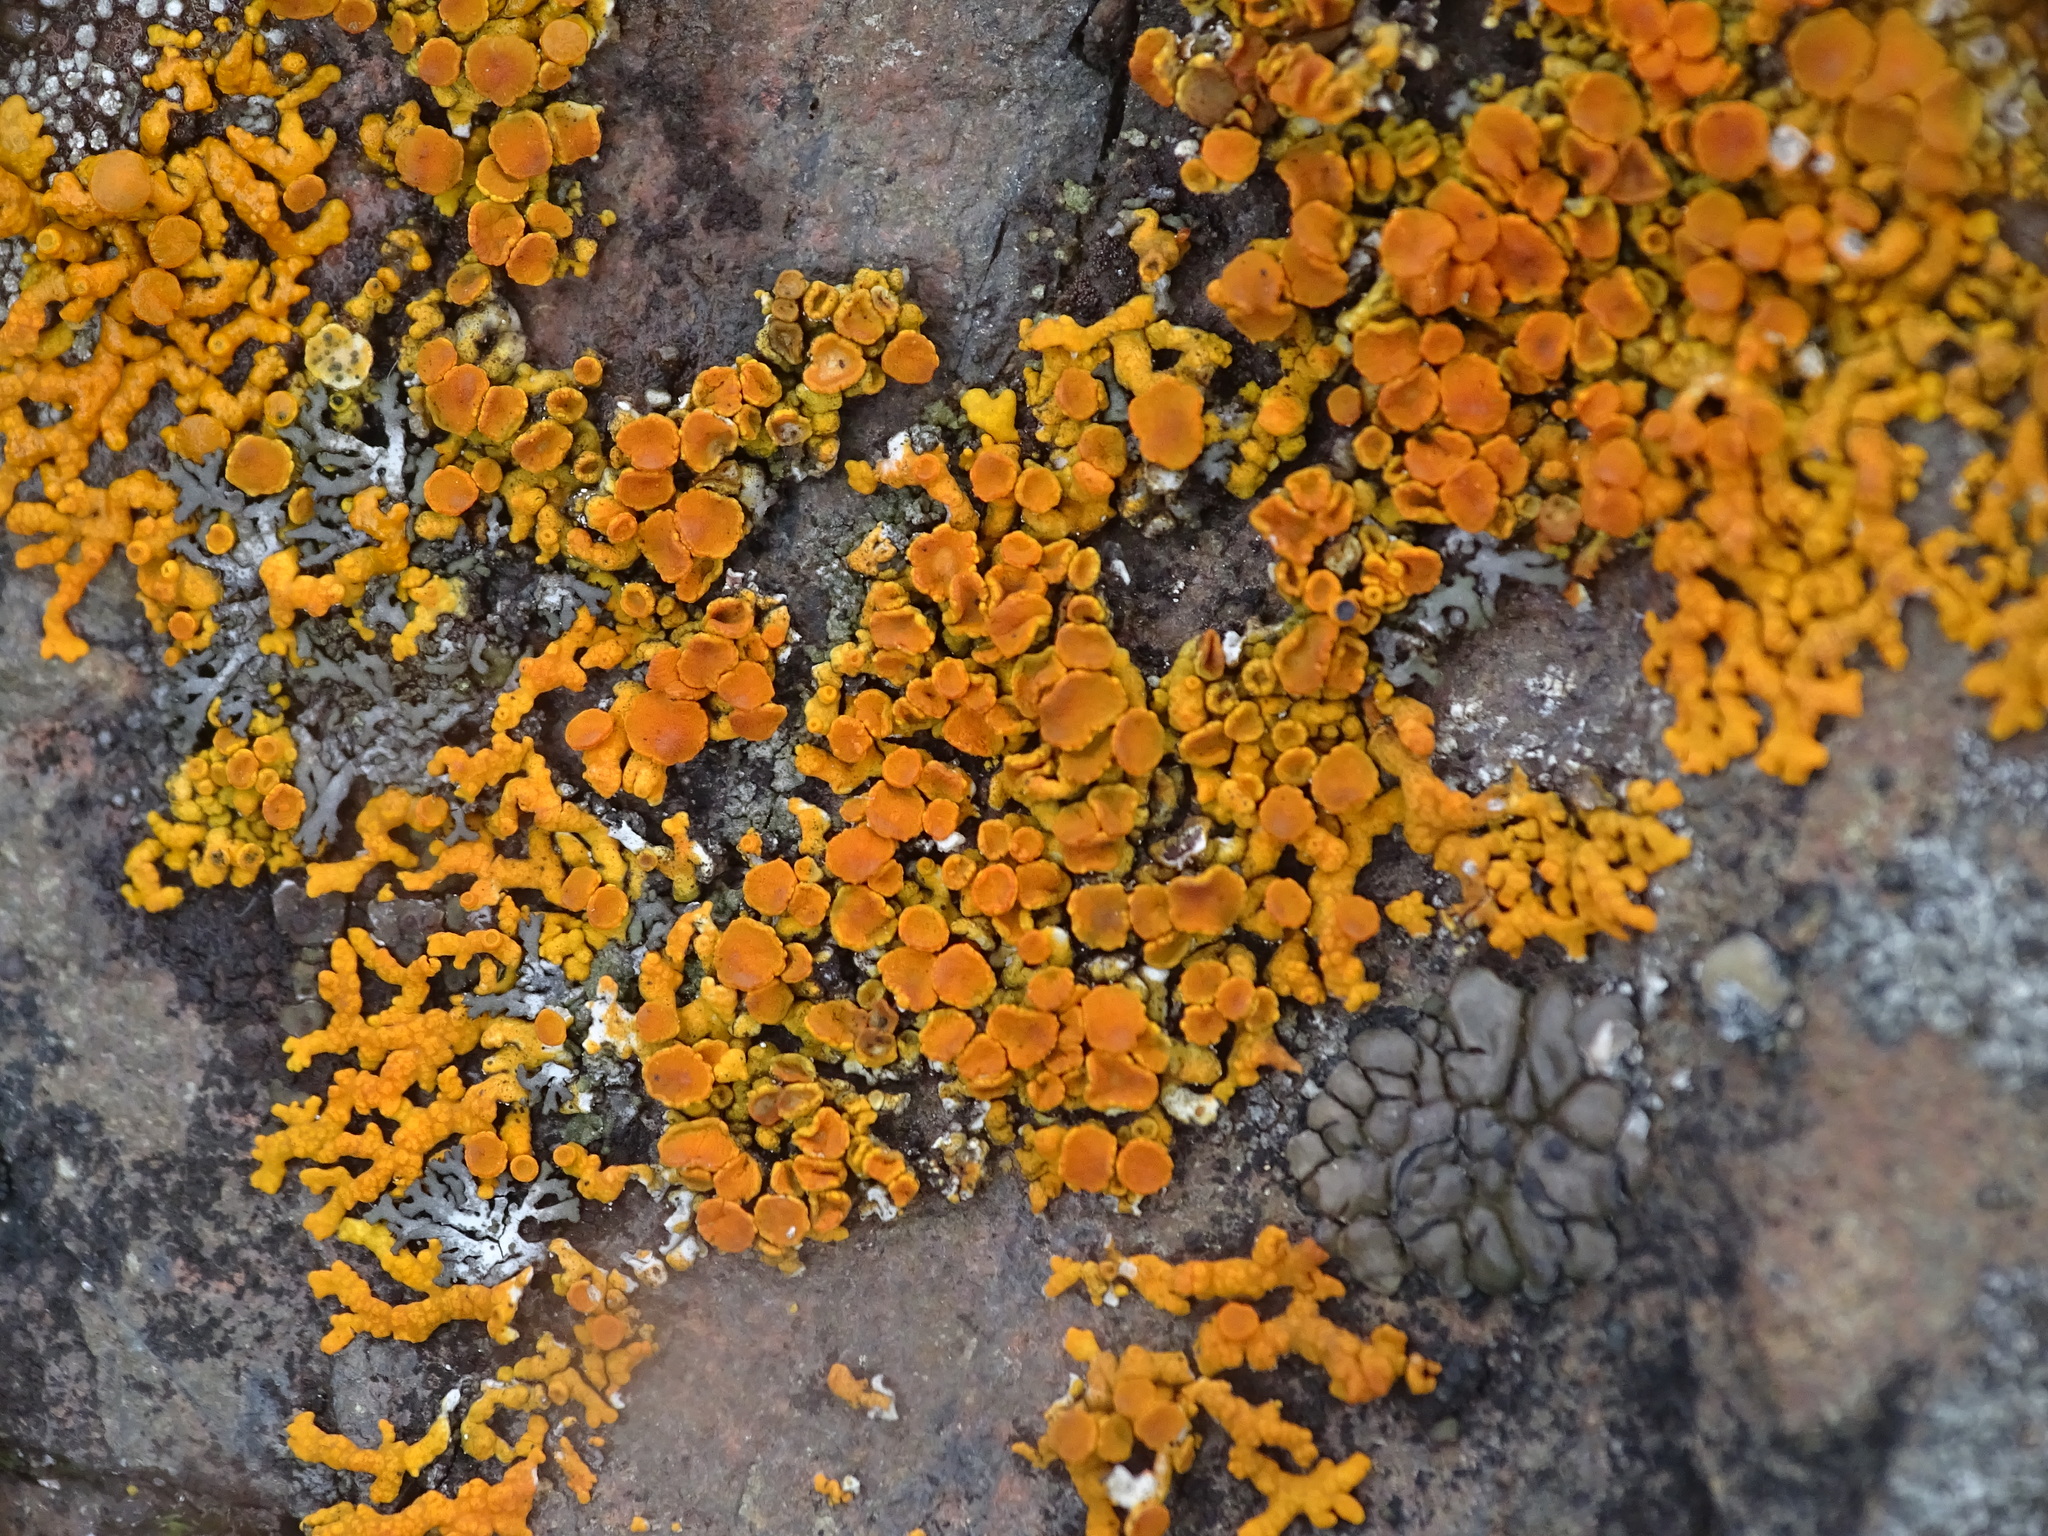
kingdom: Fungi
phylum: Ascomycota
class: Lecanoromycetes
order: Teloschistales
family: Teloschistaceae
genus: Xanthoria
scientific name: Xanthoria elegans
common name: Elegant sunburst lichen
